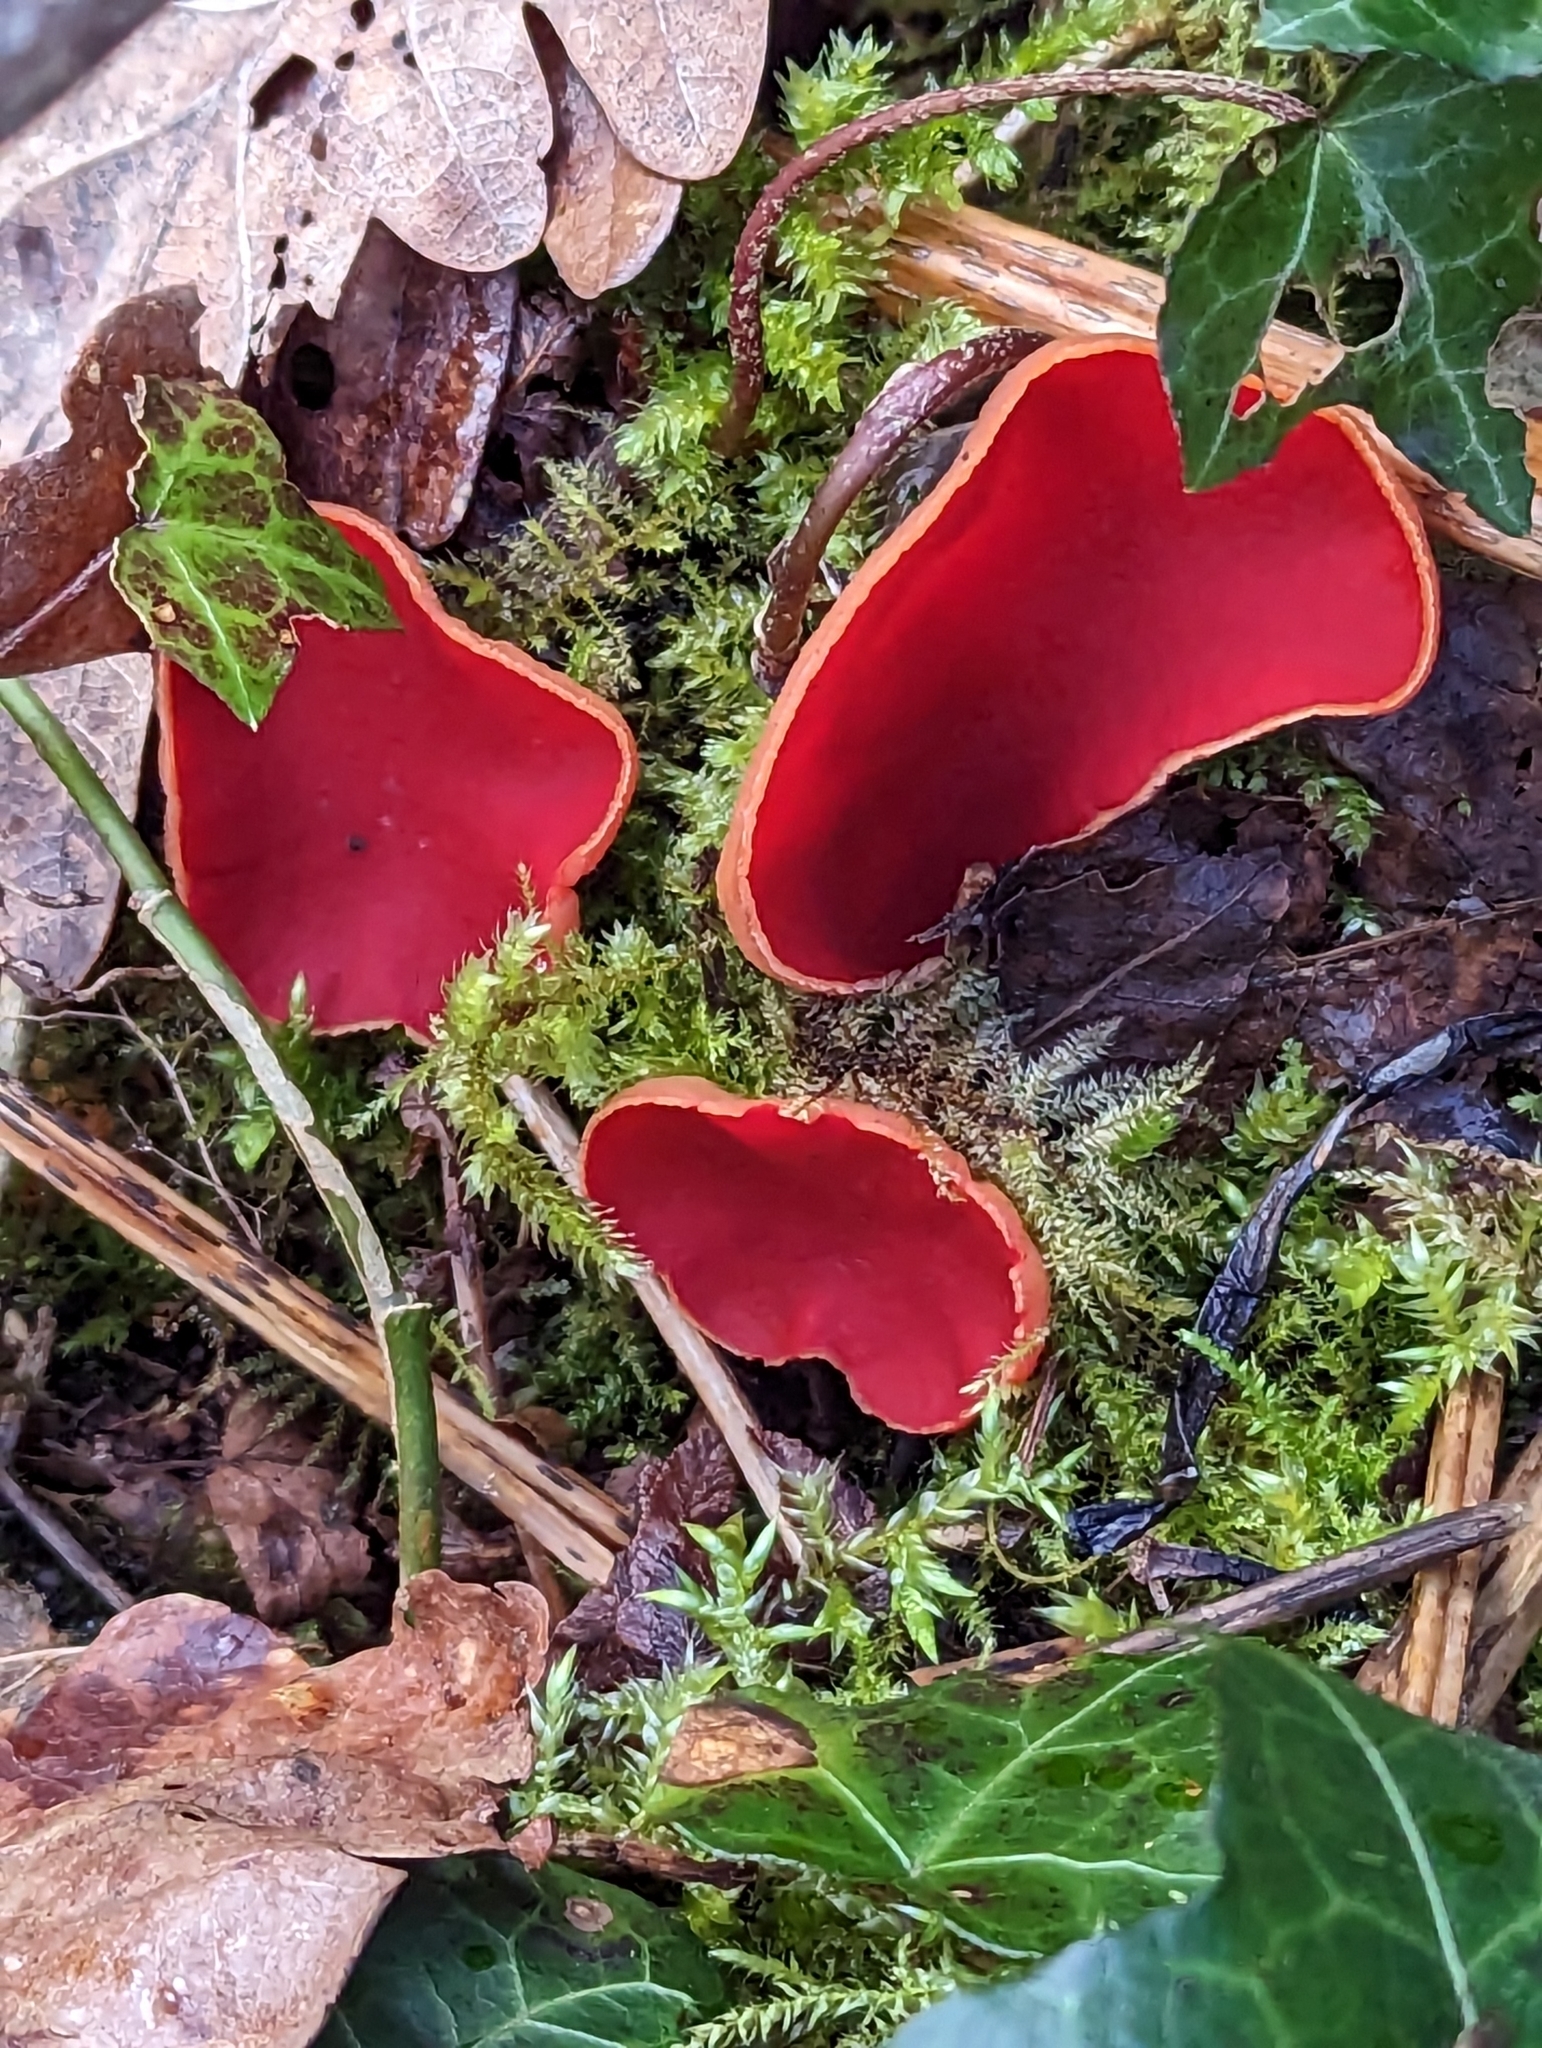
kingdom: Fungi
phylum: Ascomycota
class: Pezizomycetes
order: Pezizales
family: Sarcoscyphaceae
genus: Sarcoscypha
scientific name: Sarcoscypha
